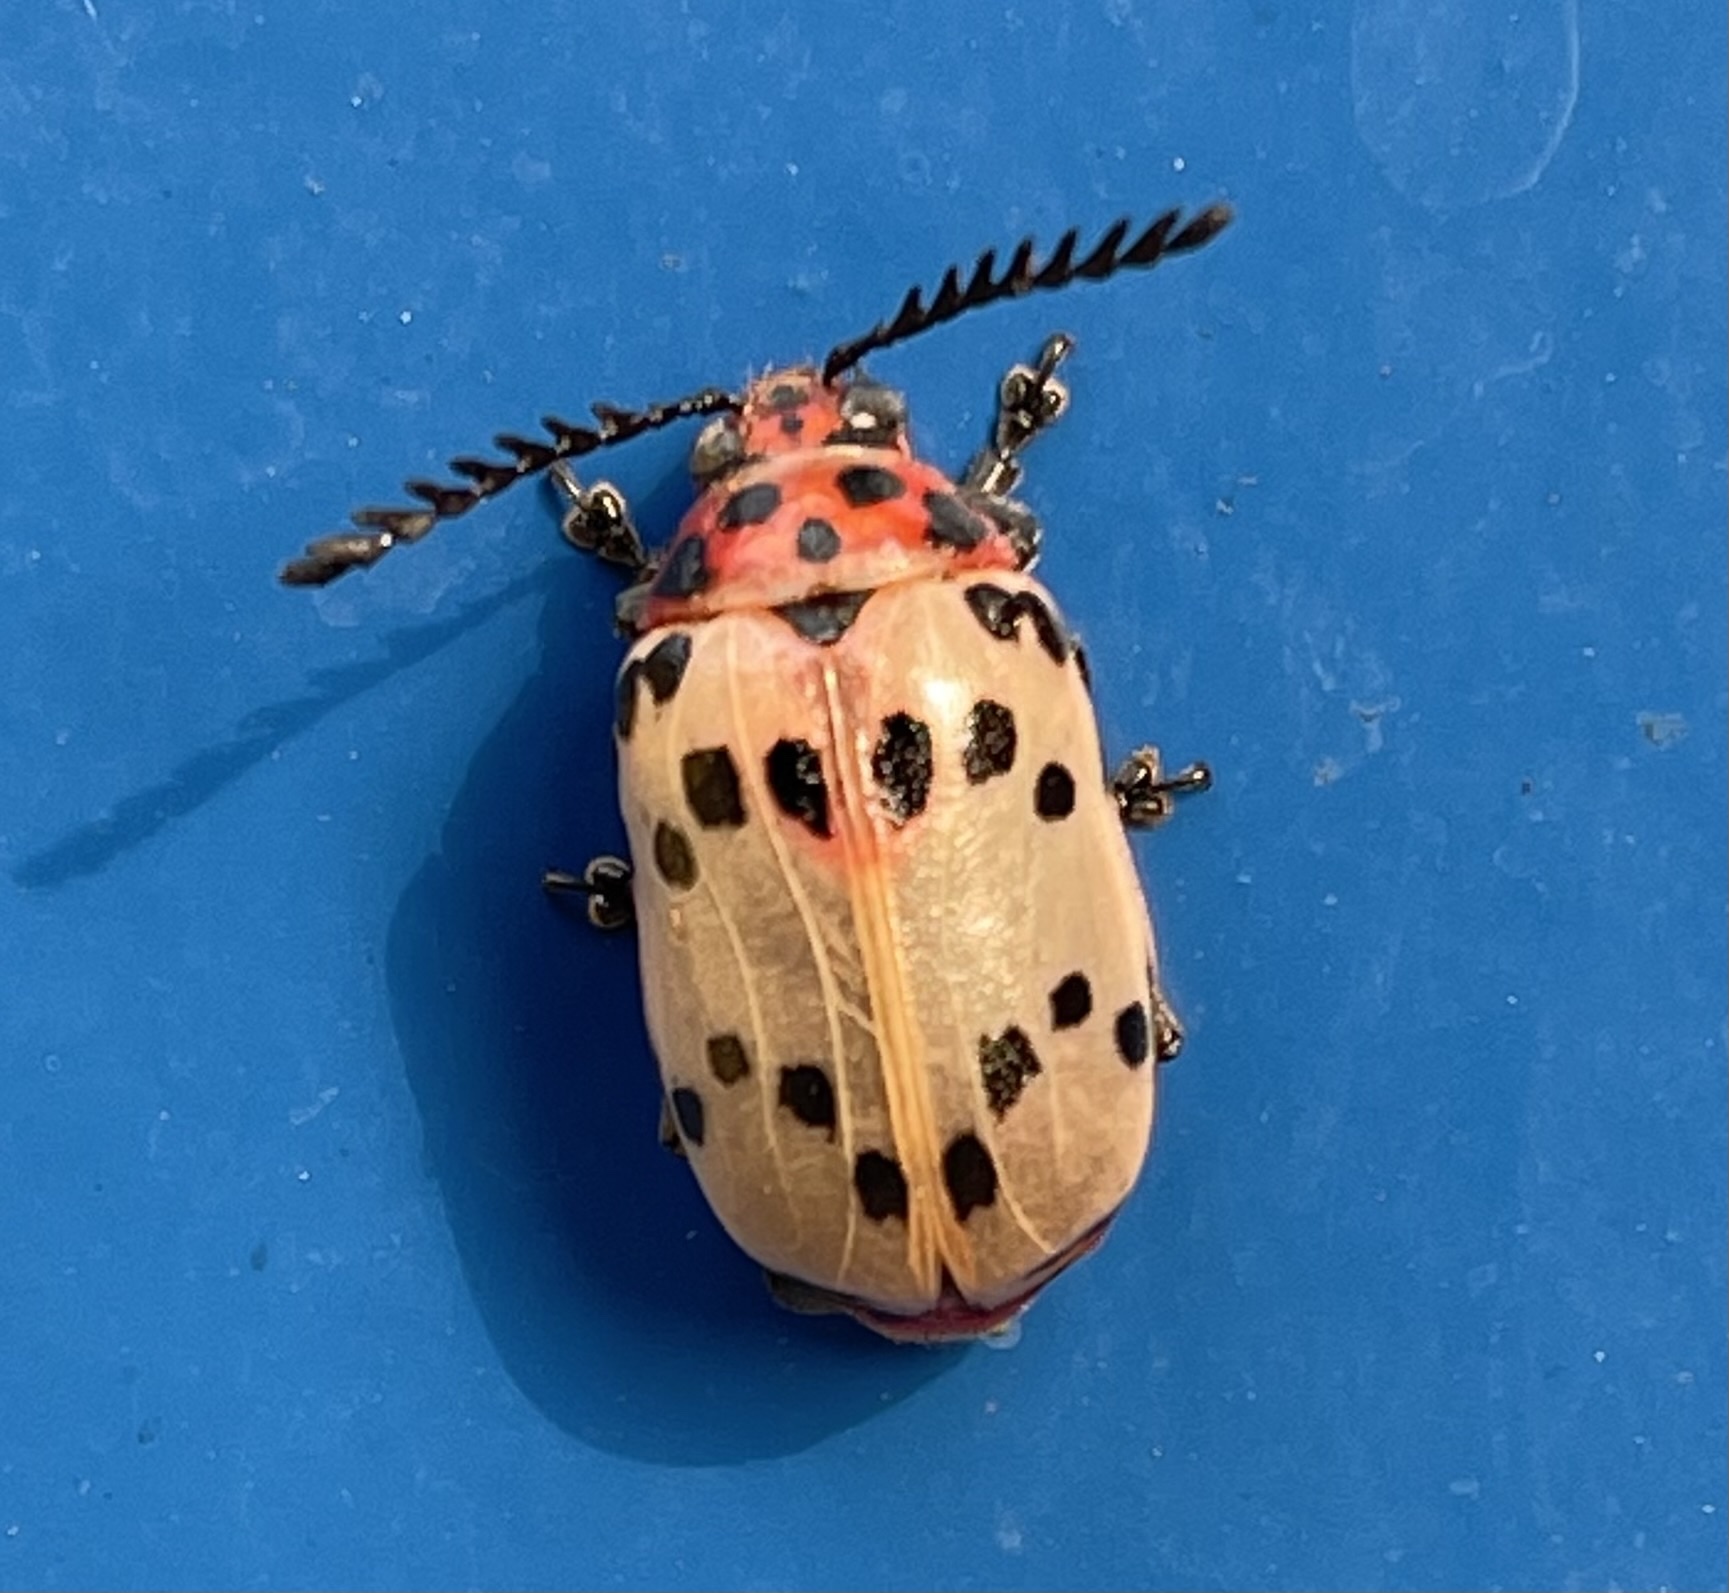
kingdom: Animalia
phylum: Arthropoda
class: Insecta
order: Coleoptera
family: Chrysomelidae
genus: Polyclada
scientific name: Polyclada
